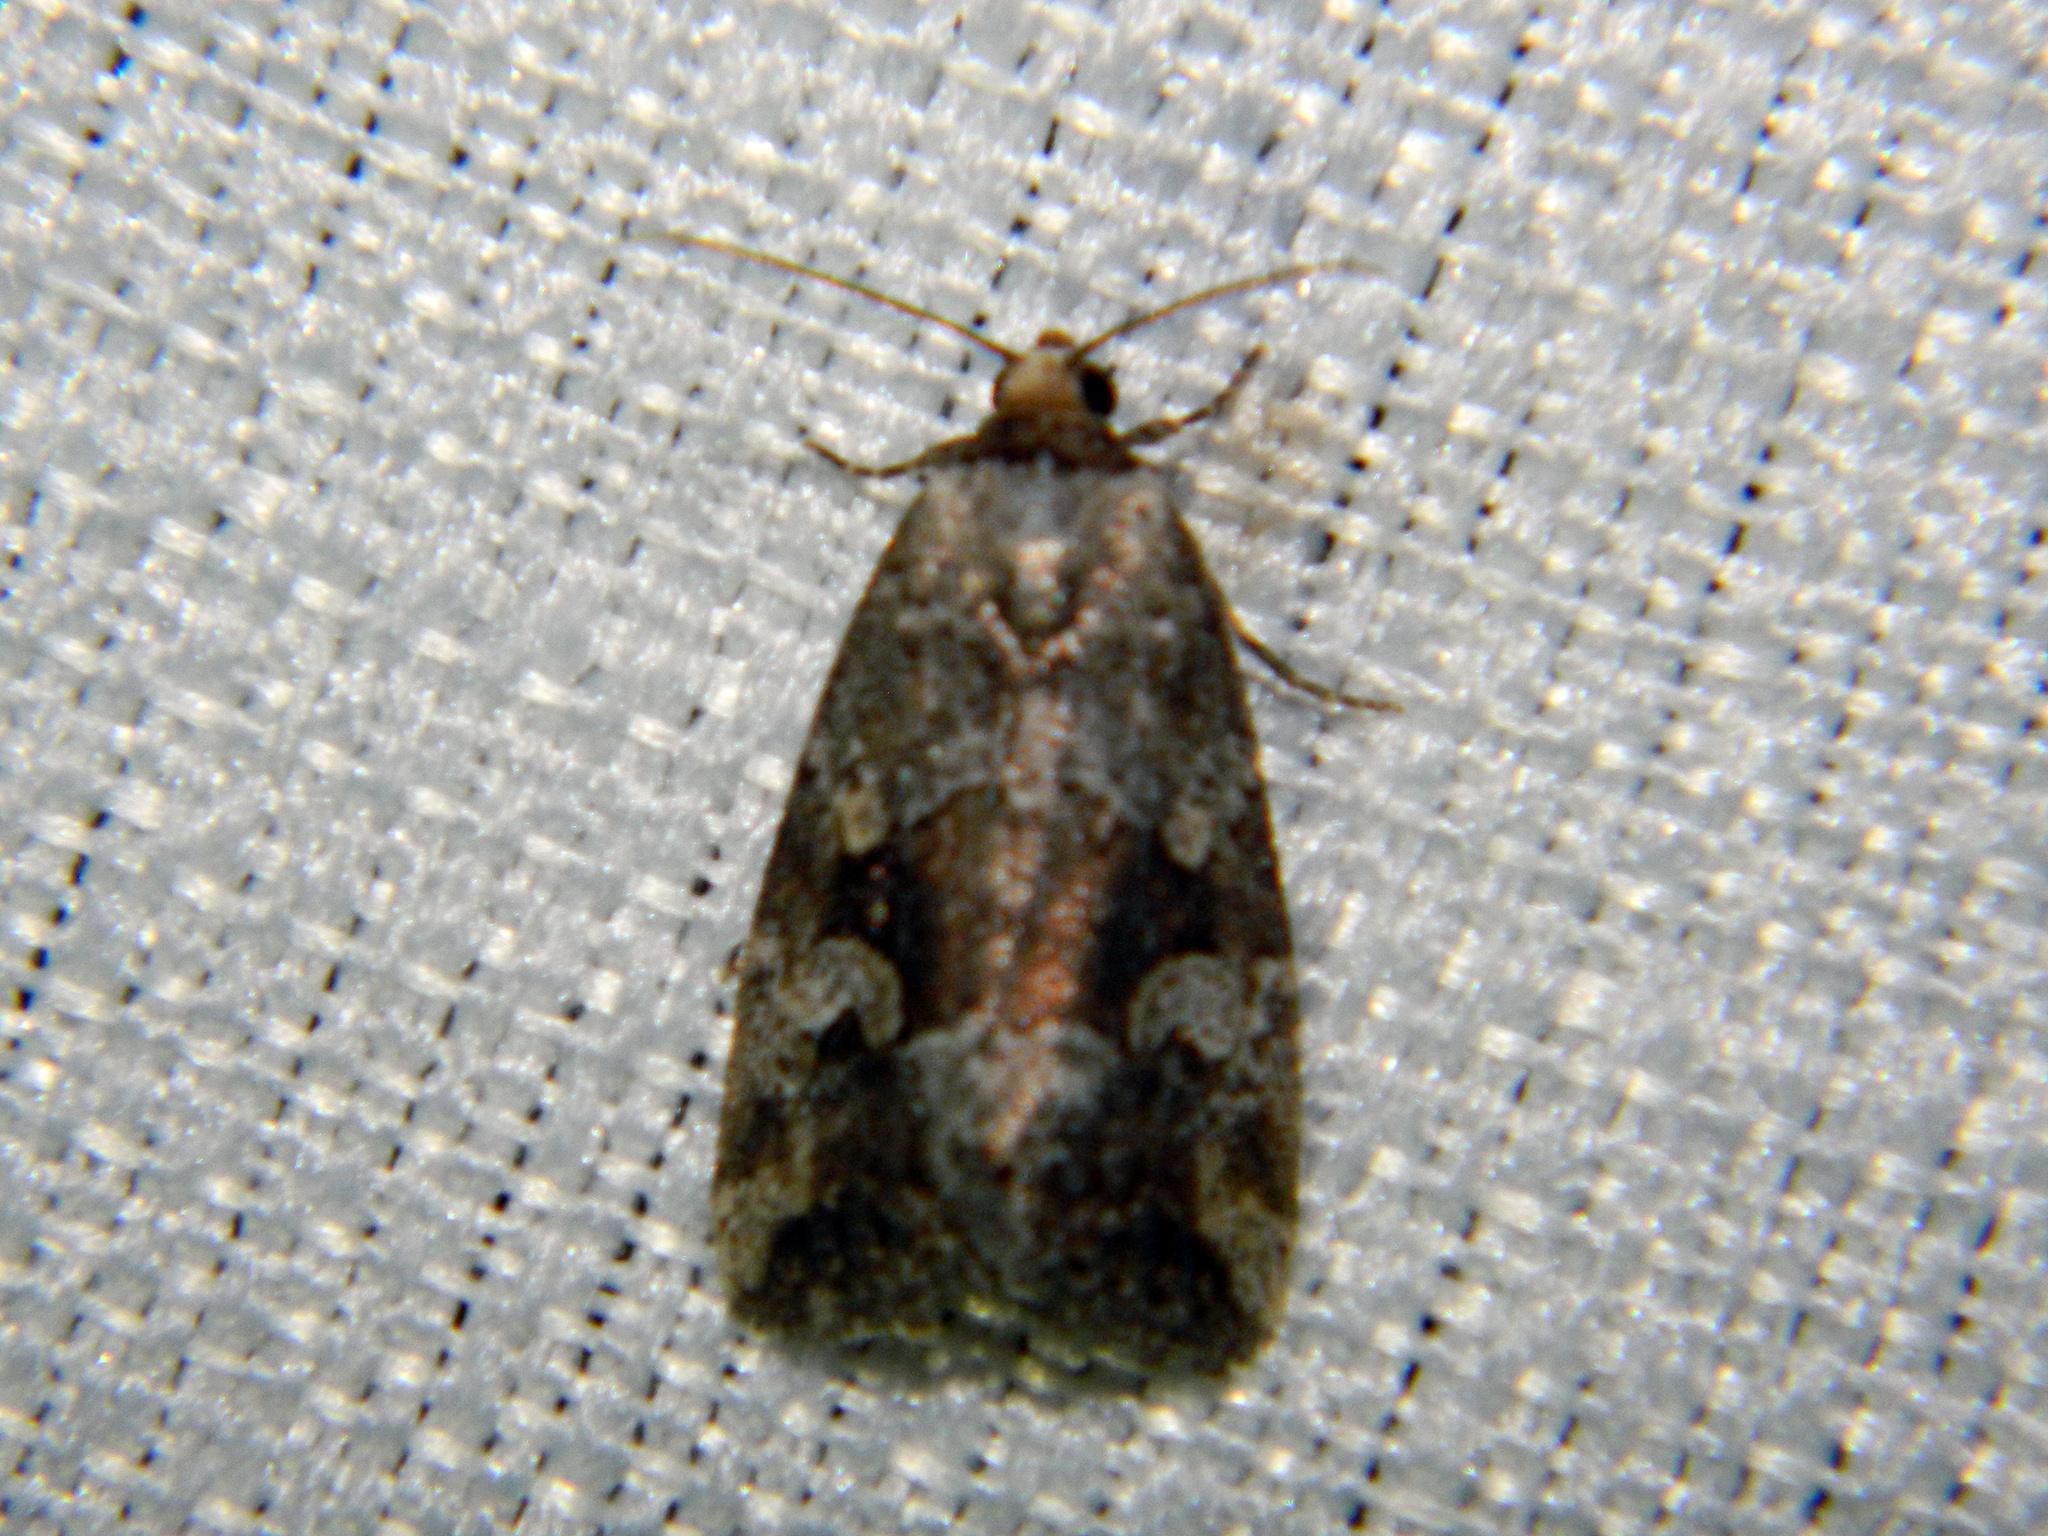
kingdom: Animalia
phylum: Arthropoda
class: Insecta
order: Lepidoptera
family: Noctuidae
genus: Elaphria
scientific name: Elaphria alapallida
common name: Pale-winged midget
